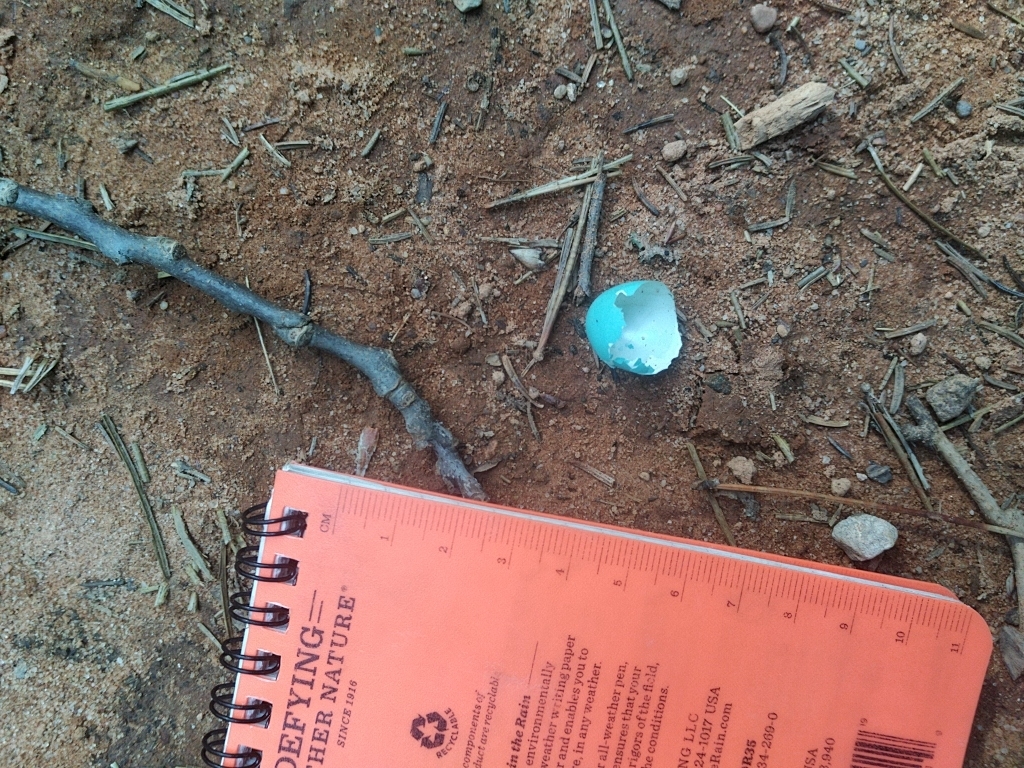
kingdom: Animalia
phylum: Chordata
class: Aves
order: Passeriformes
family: Turdidae
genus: Turdus
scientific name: Turdus migratorius
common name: American robin
